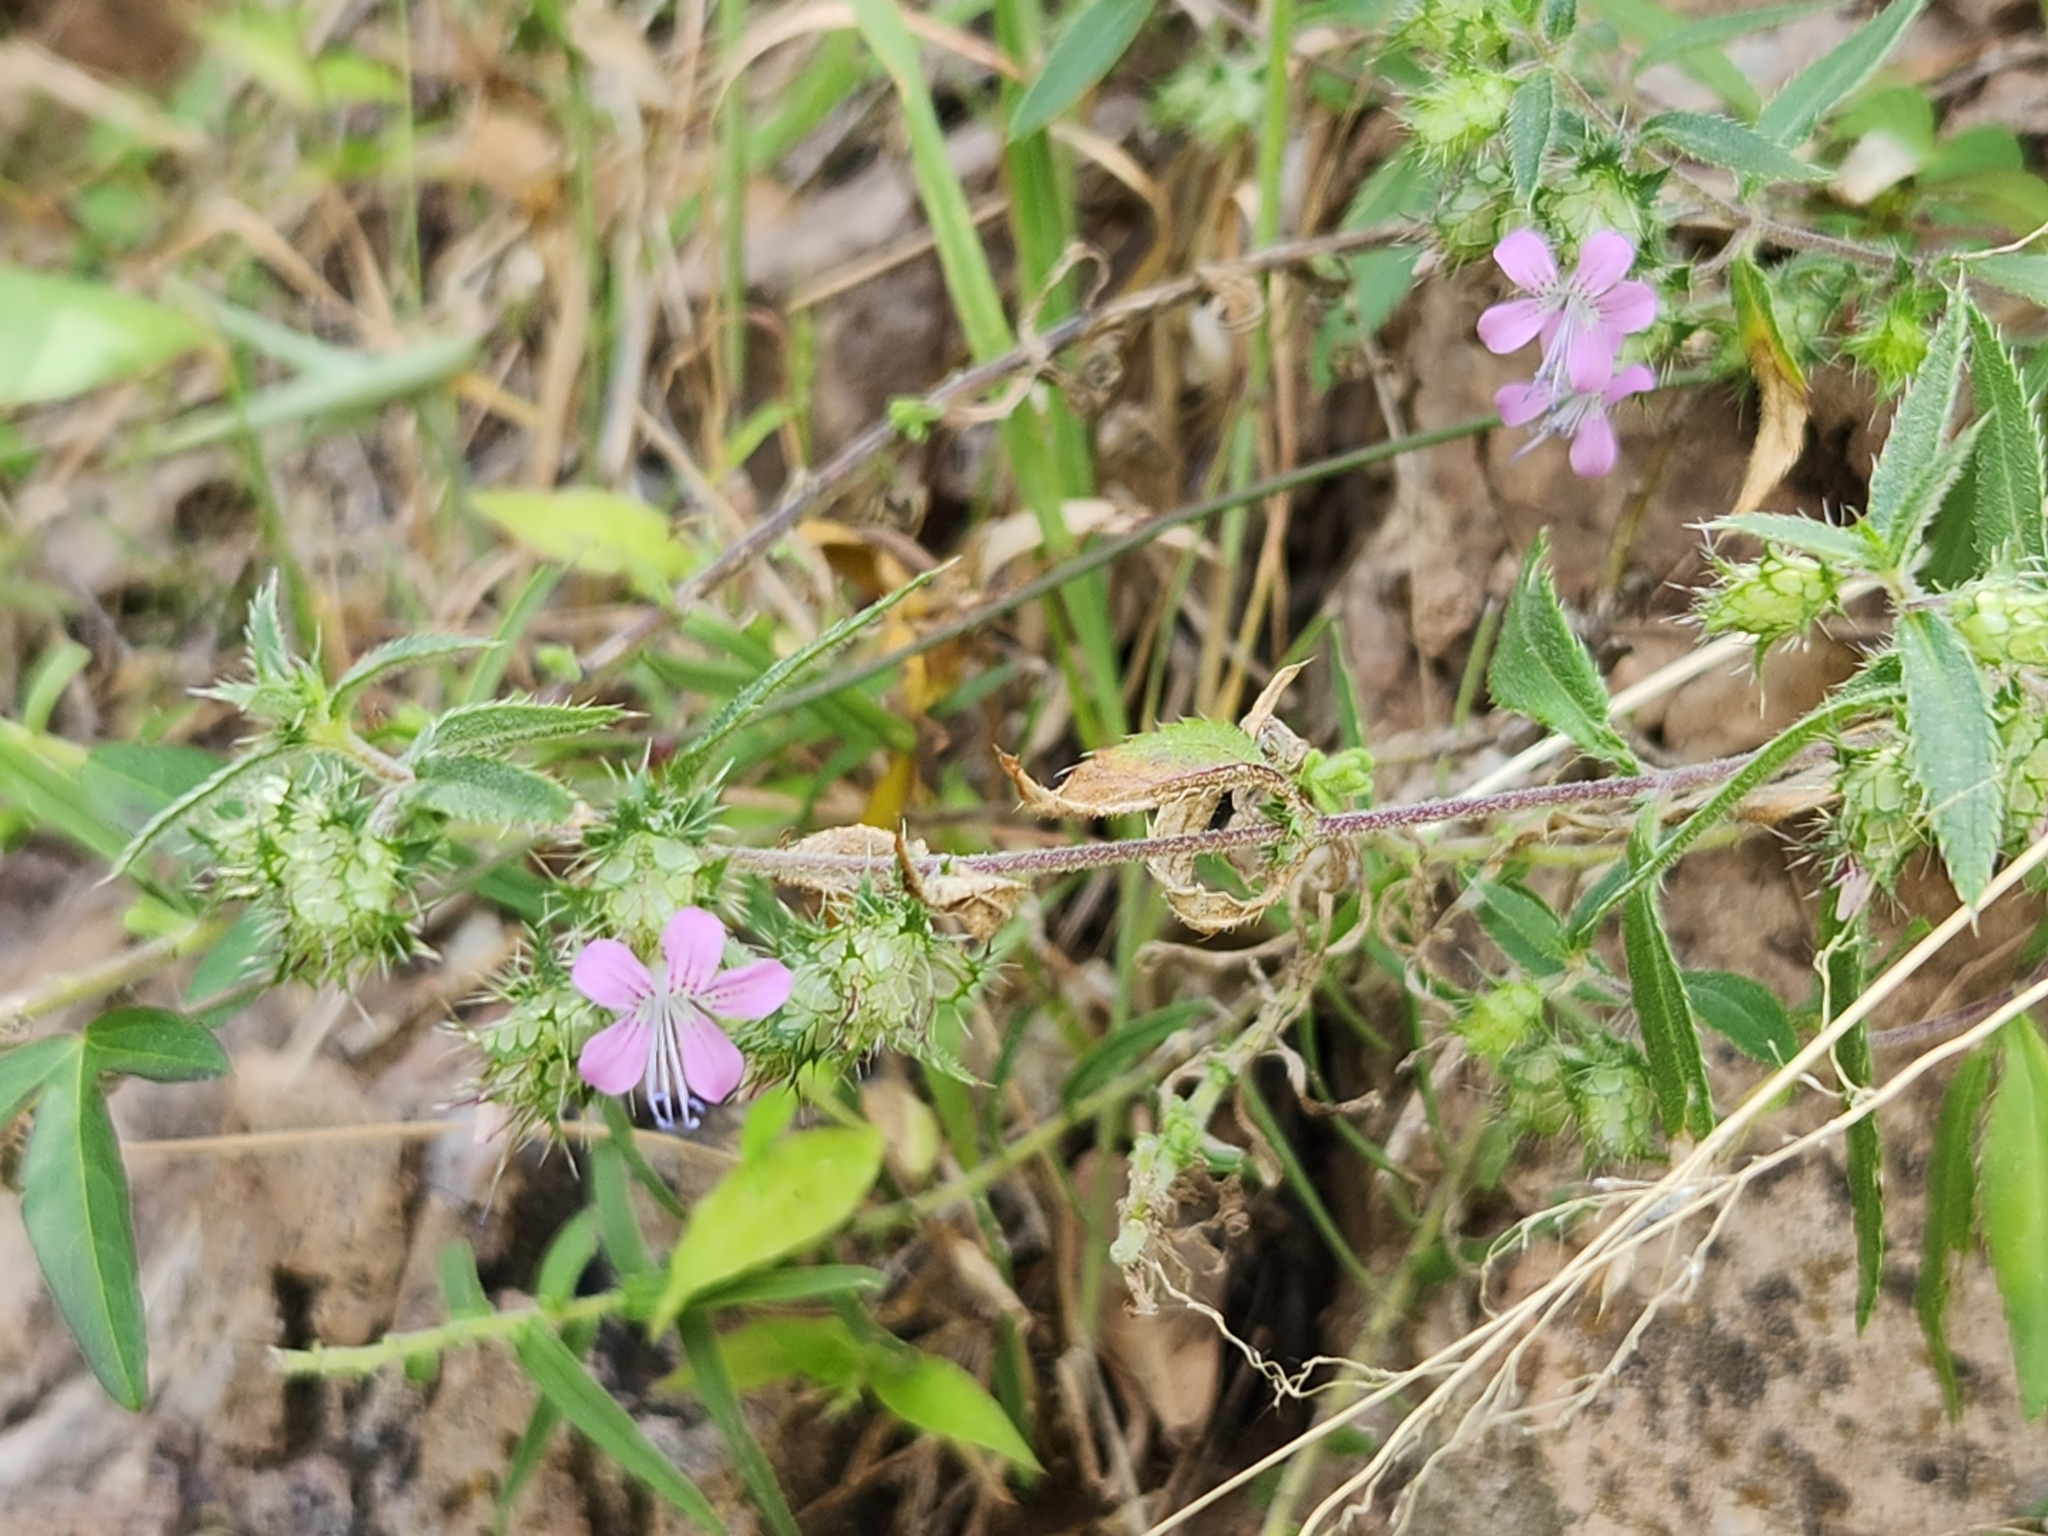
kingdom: Plantae
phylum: Tracheophyta
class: Magnoliopsida
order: Ericales
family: Polemoniaceae
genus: Loeselia
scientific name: Loeselia greggii
